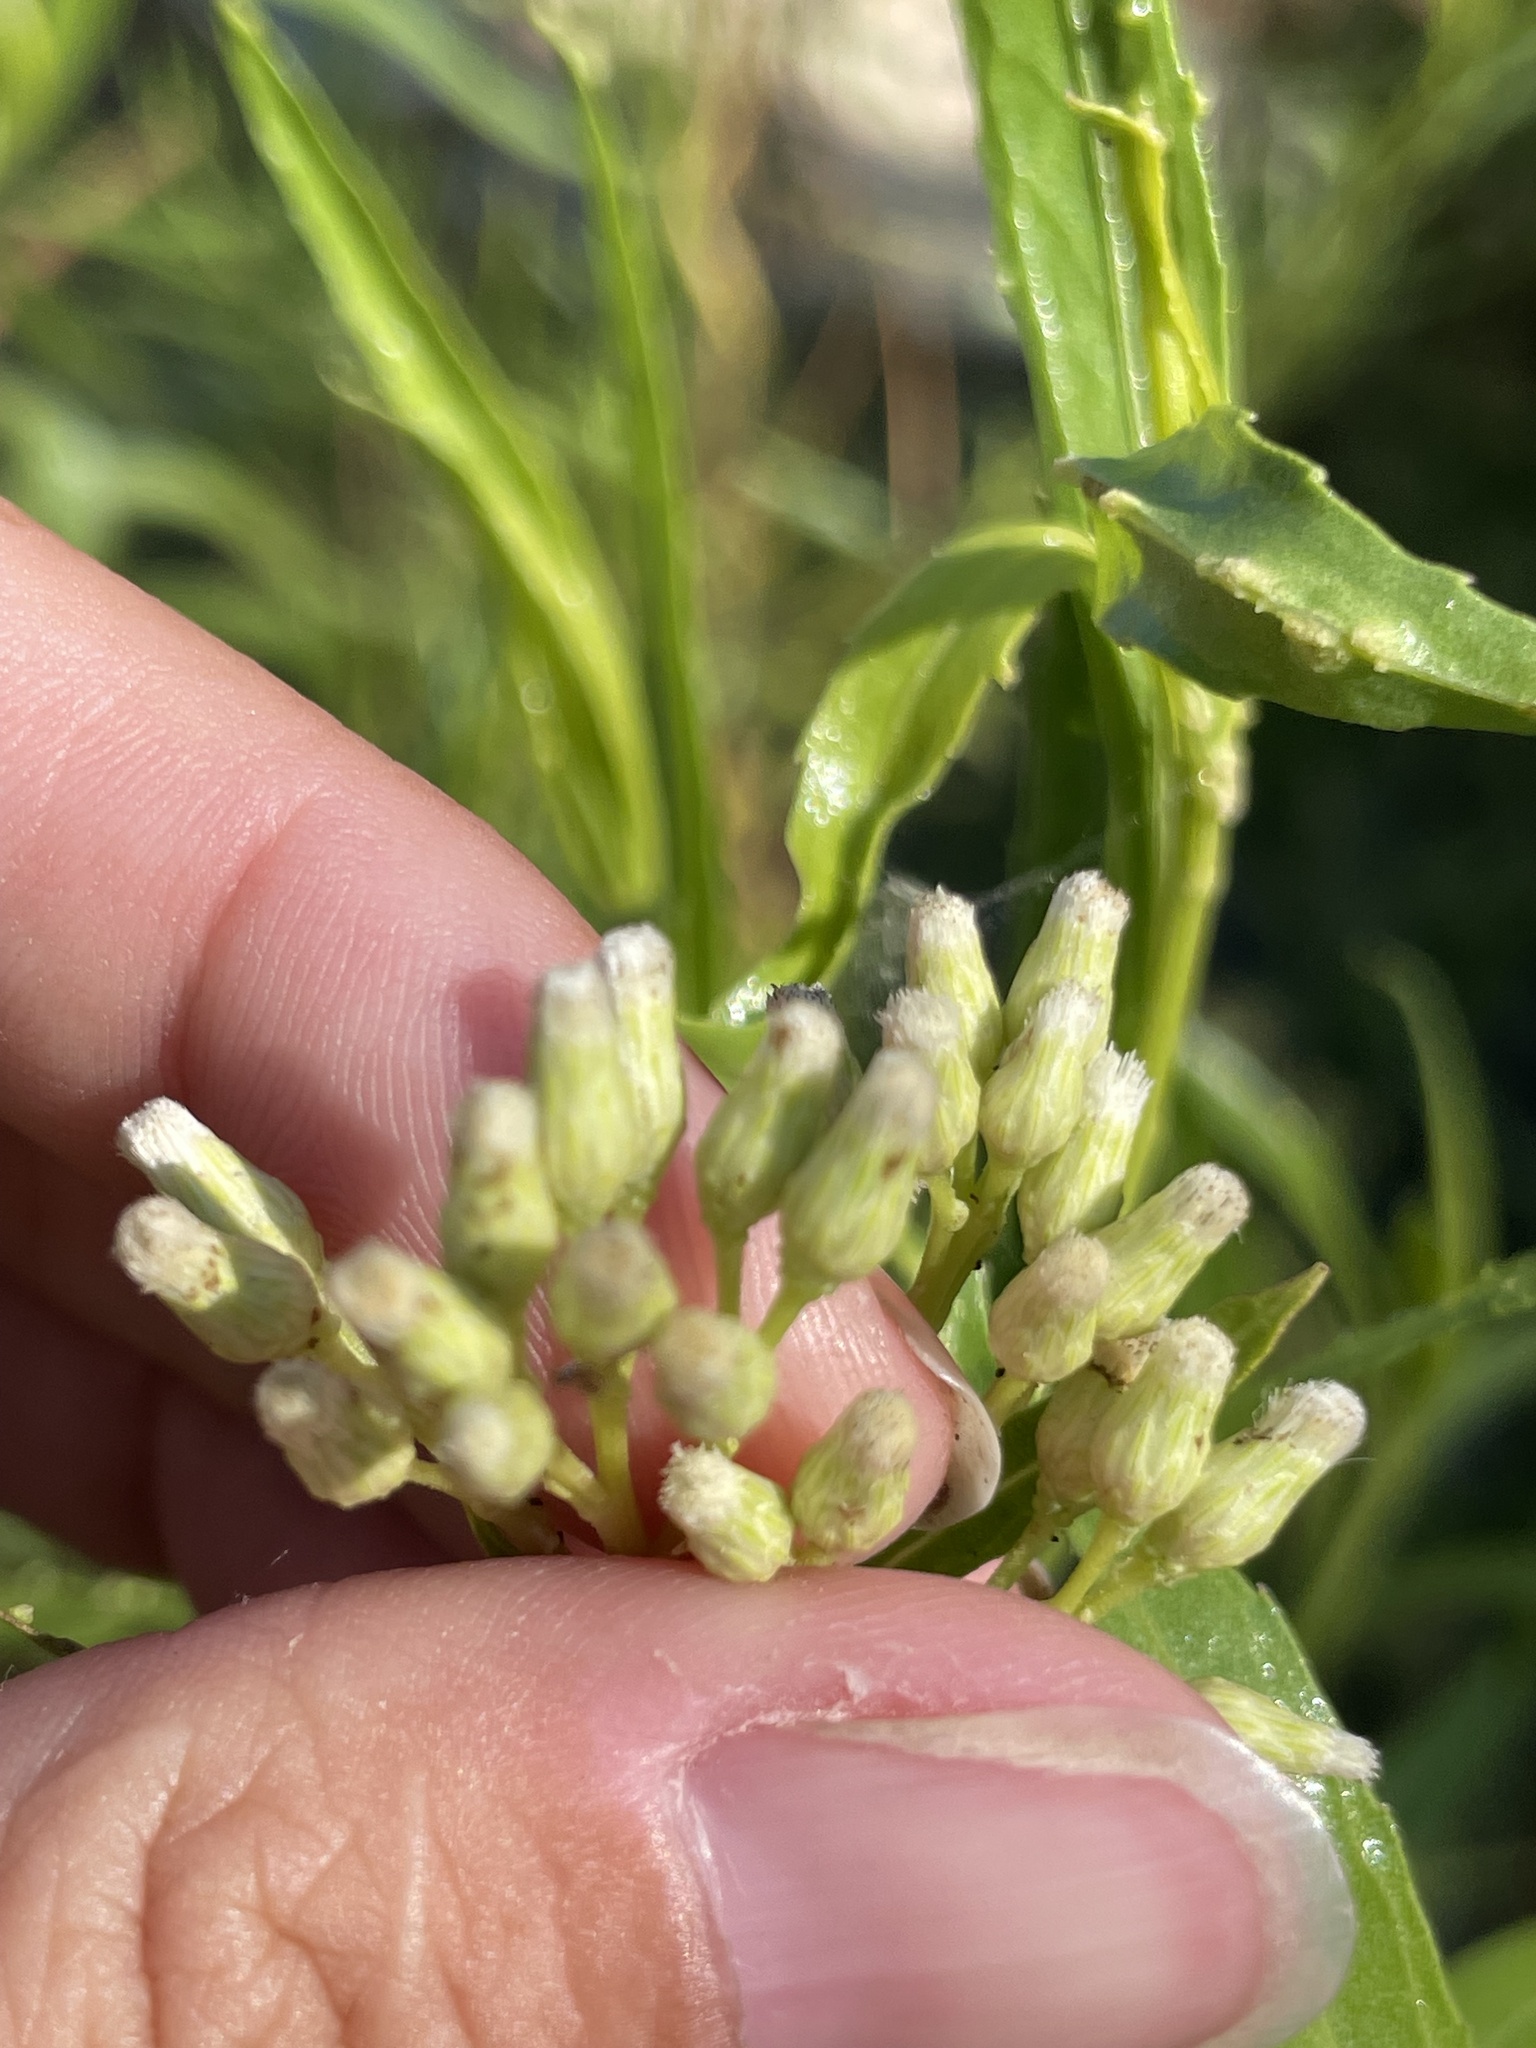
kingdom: Plantae
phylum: Tracheophyta
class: Magnoliopsida
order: Asterales
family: Asteraceae
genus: Baccharis
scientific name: Baccharis salicifolia
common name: Sticky baccharis
